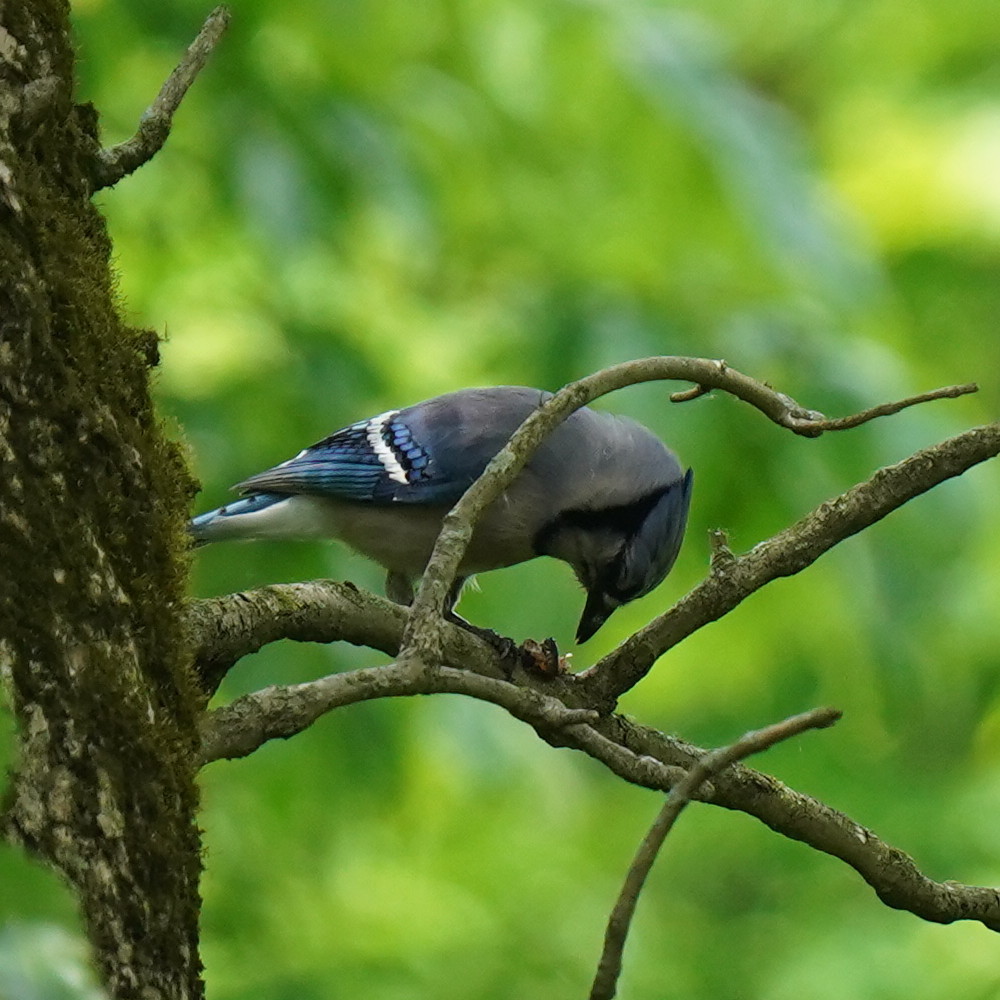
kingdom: Animalia
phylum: Chordata
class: Aves
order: Passeriformes
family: Corvidae
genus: Cyanocitta
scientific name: Cyanocitta cristata
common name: Blue jay
